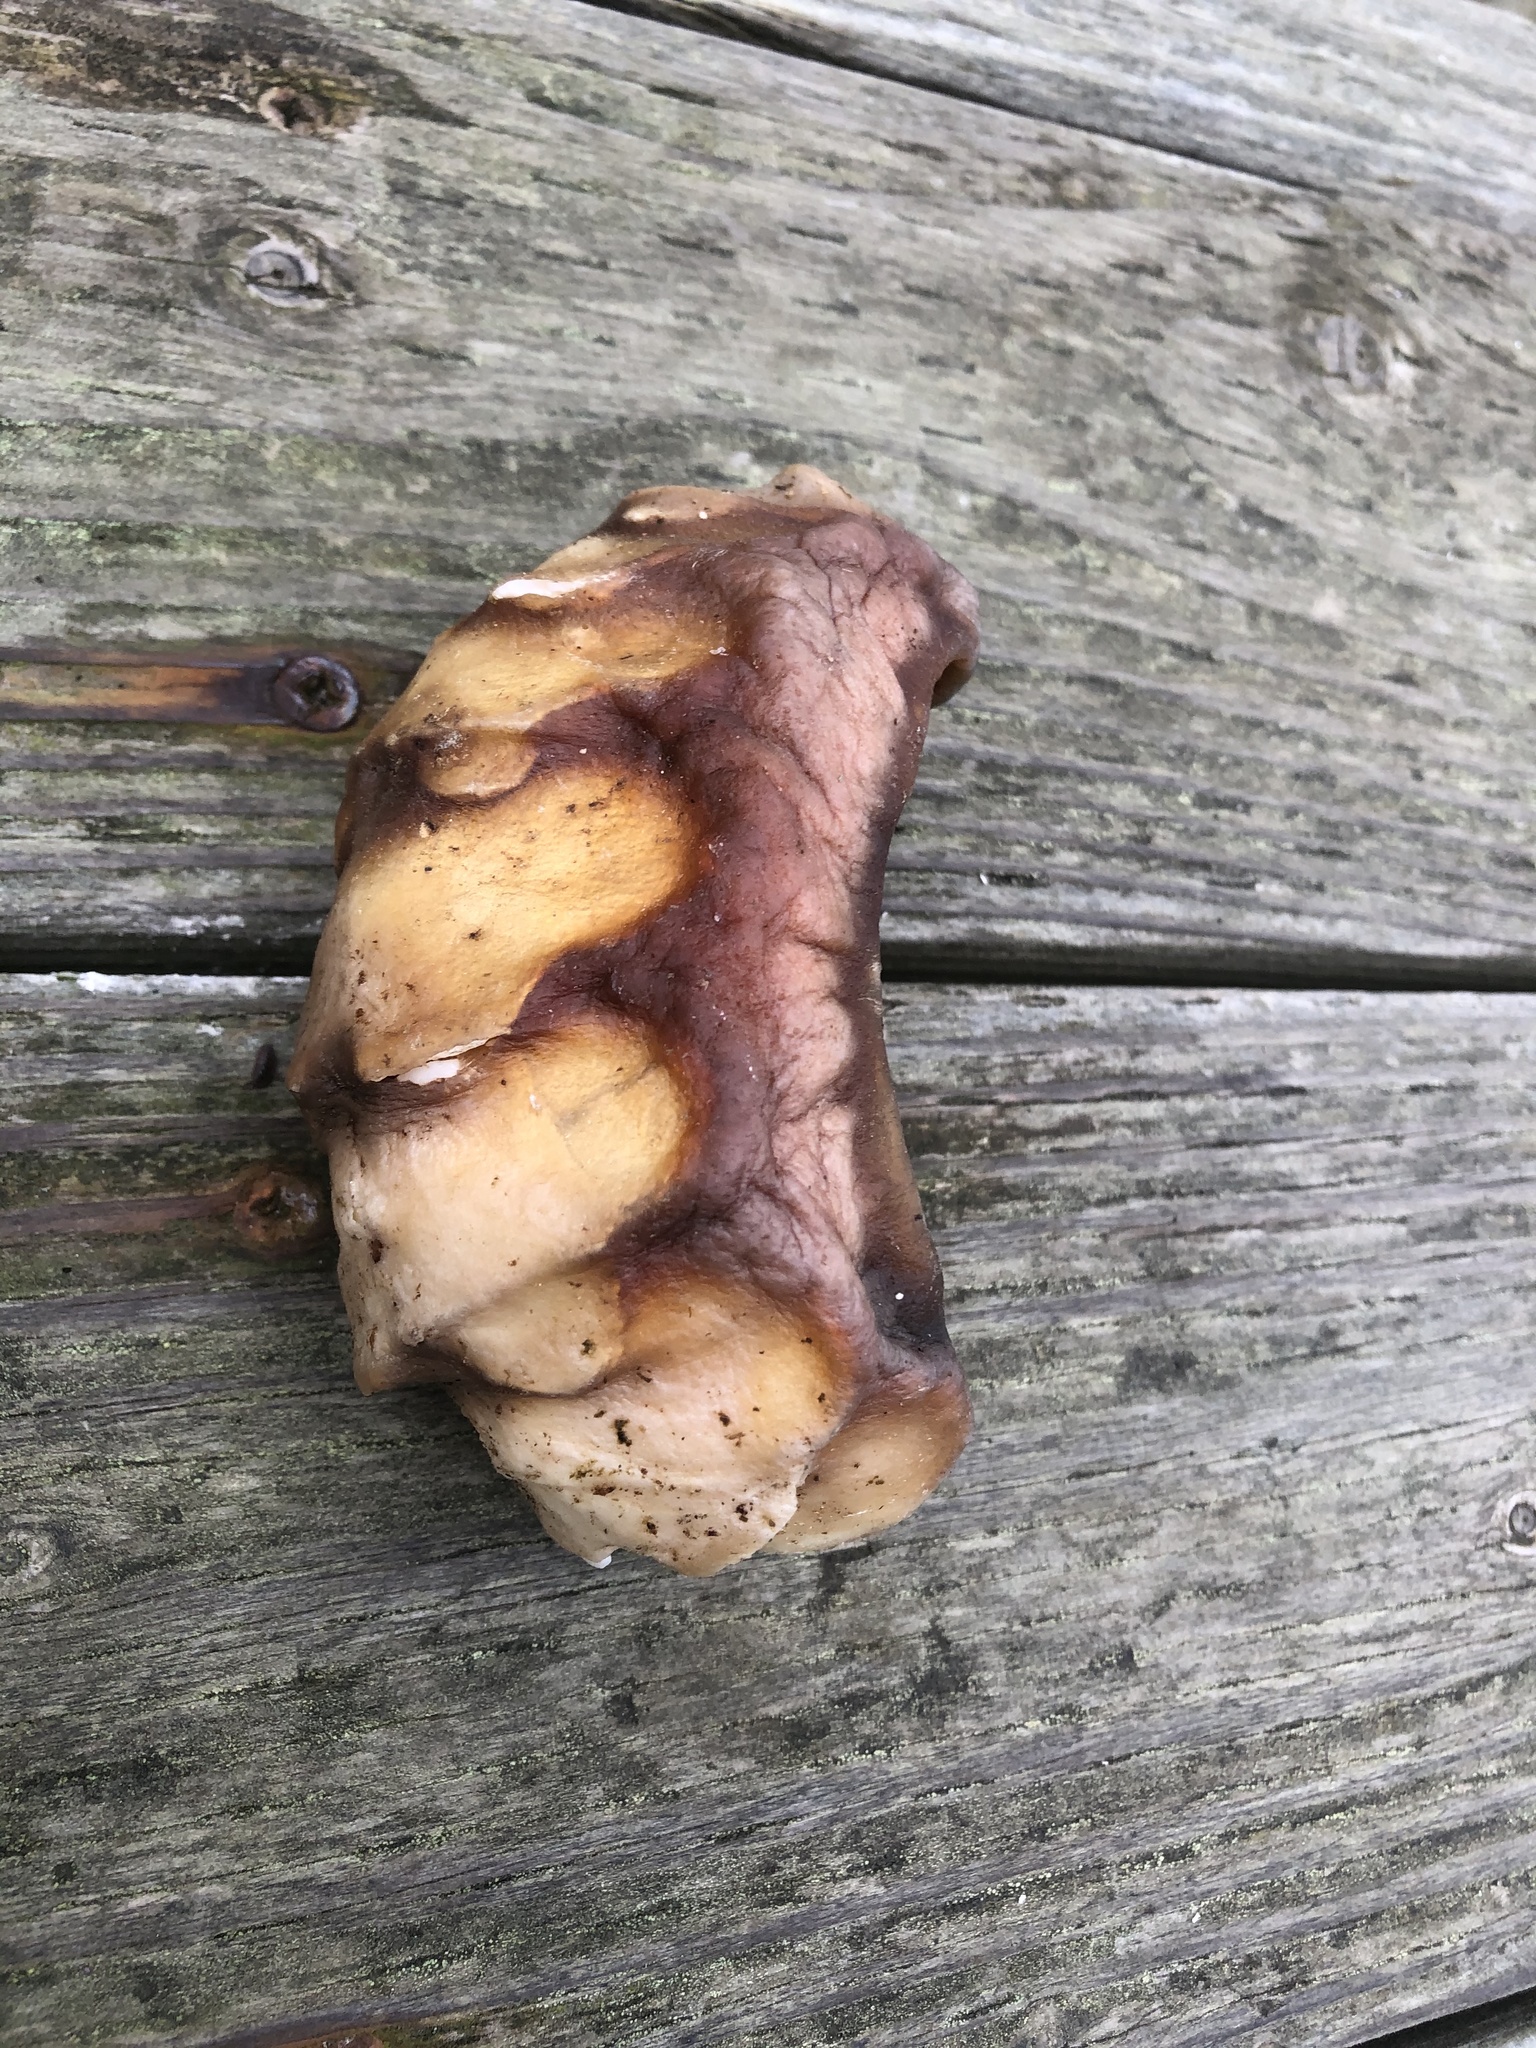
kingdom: Animalia
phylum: Mollusca
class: Polyplacophora
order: Chitonida
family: Acanthochitonidae
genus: Cryptochiton
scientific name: Cryptochiton stelleri
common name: Giant pacific chiton
